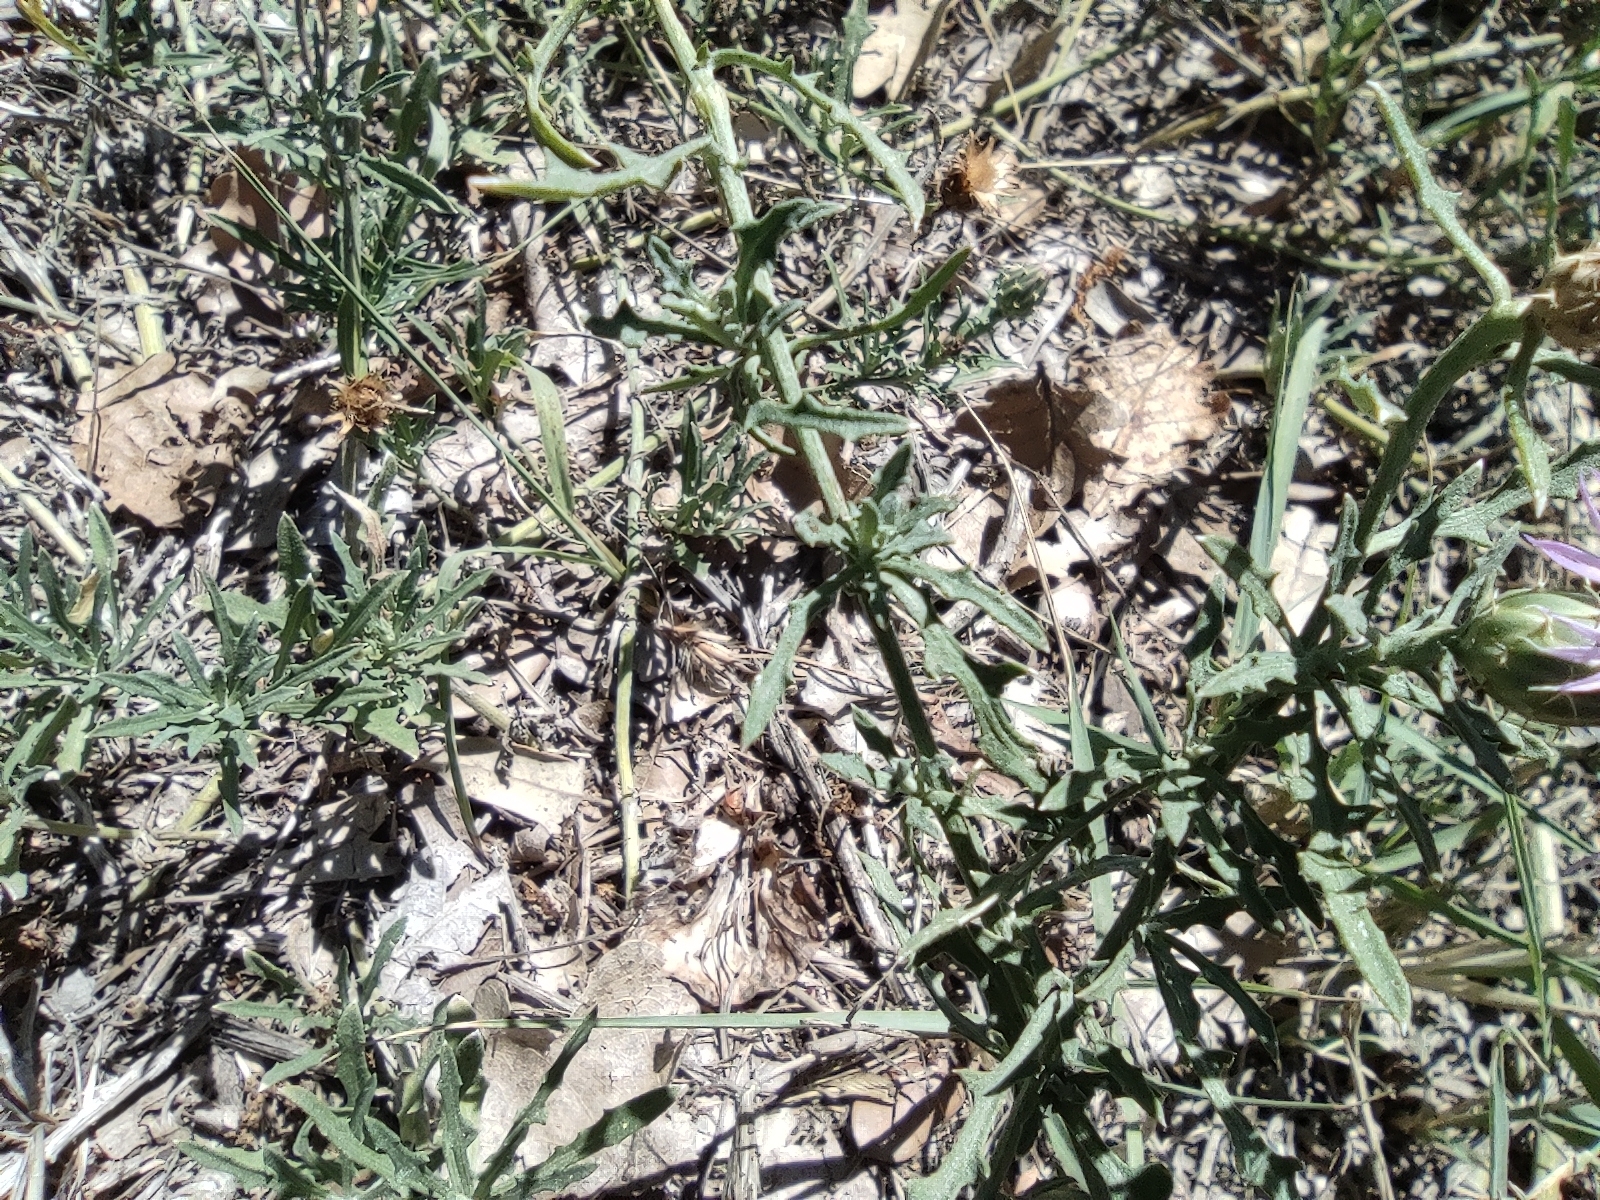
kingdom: Plantae
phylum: Tracheophyta
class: Magnoliopsida
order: Asterales
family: Asteraceae
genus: Centaurea
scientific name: Centaurea aspera
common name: Rough star-thistle
